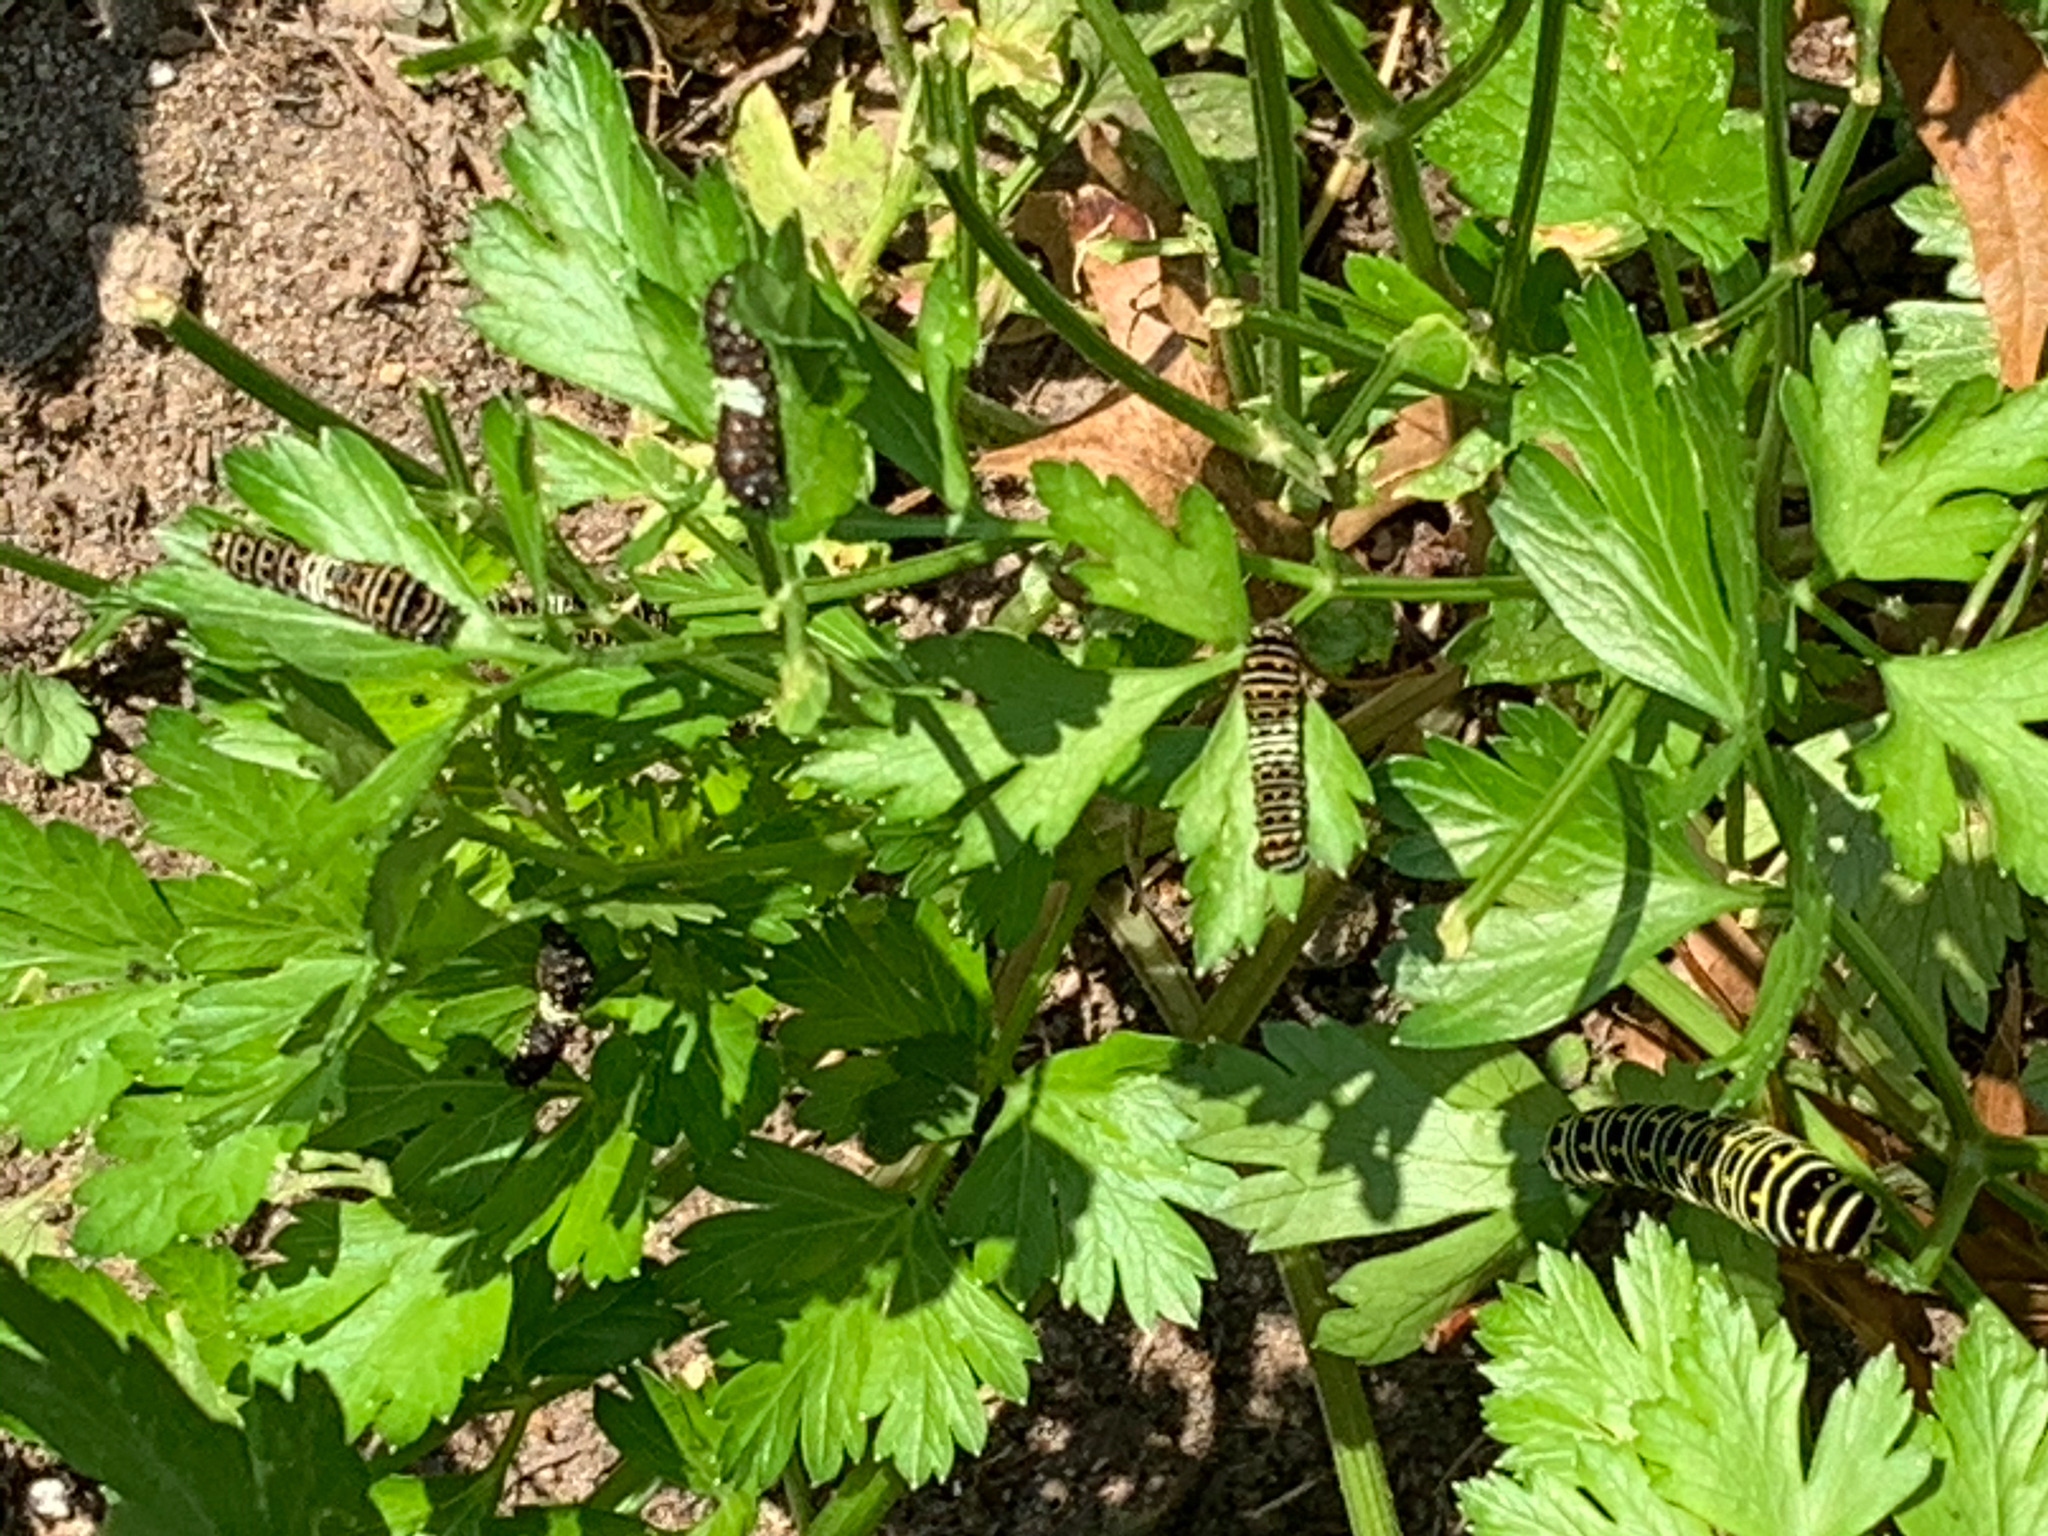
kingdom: Animalia
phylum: Arthropoda
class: Insecta
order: Lepidoptera
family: Papilionidae
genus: Papilio
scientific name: Papilio polyxenes
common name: Black swallowtail
